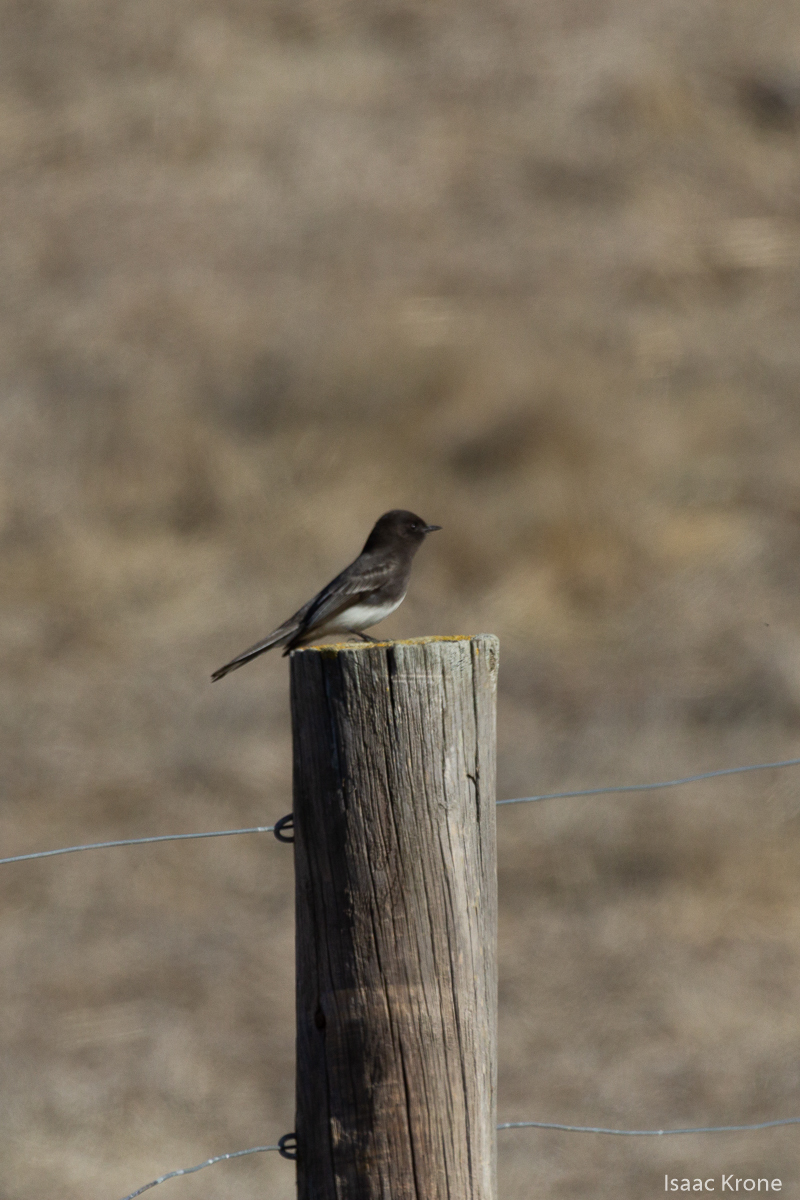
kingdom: Animalia
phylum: Chordata
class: Aves
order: Passeriformes
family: Tyrannidae
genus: Sayornis
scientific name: Sayornis nigricans
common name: Black phoebe
